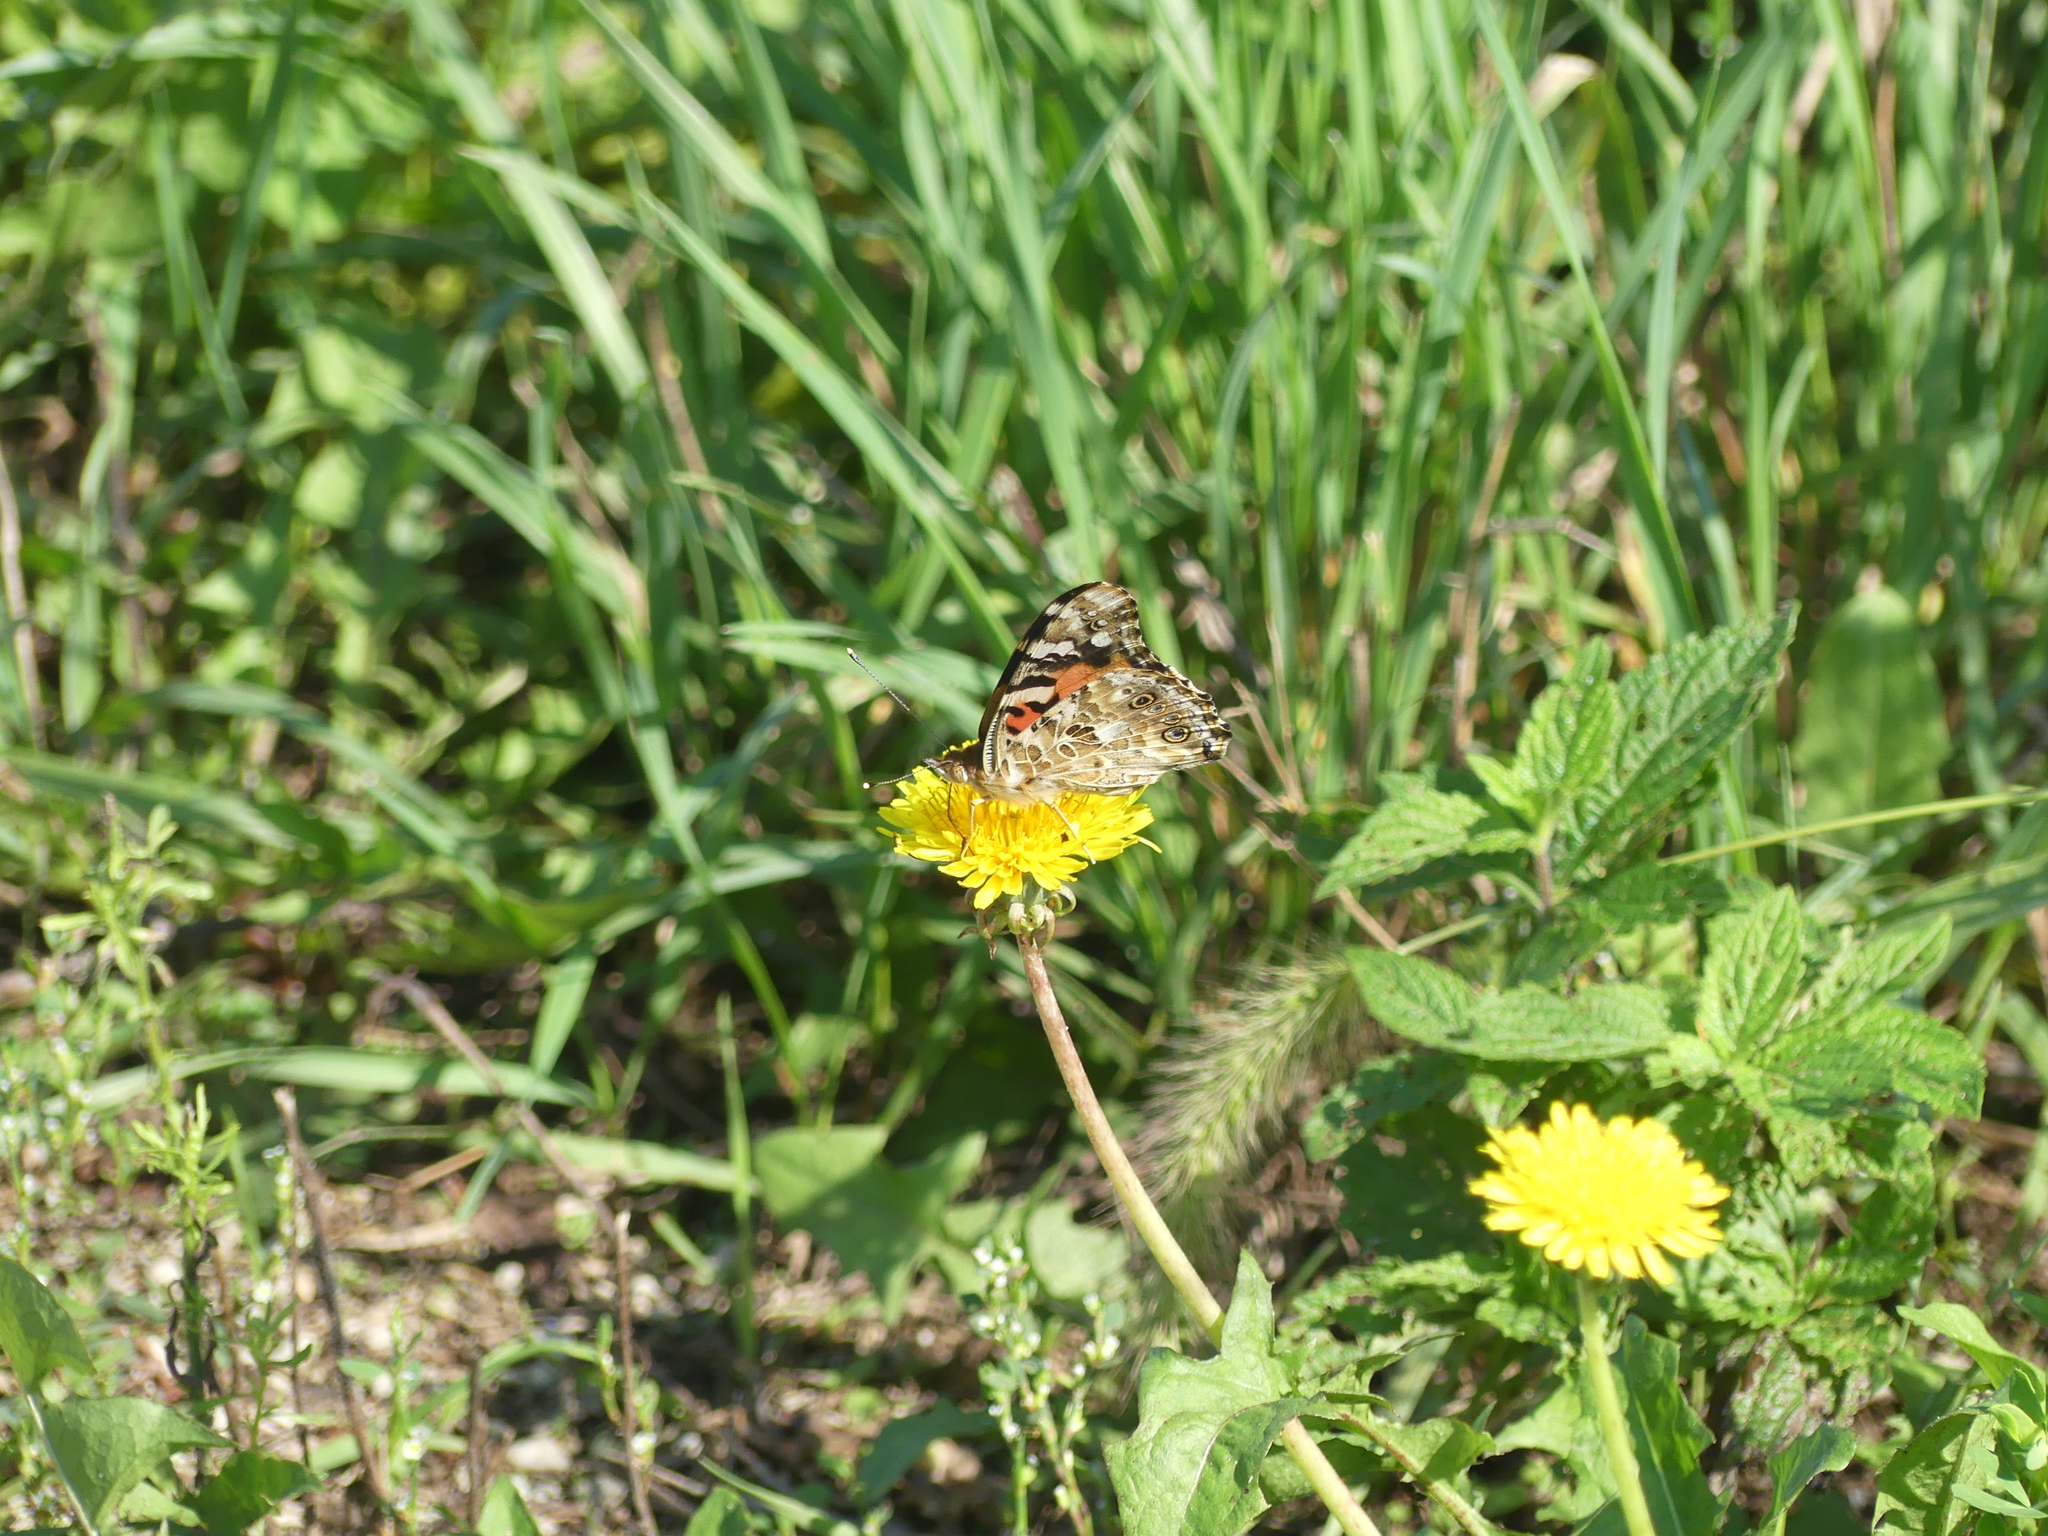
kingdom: Animalia
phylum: Arthropoda
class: Insecta
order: Lepidoptera
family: Nymphalidae
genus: Vanessa
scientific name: Vanessa cardui
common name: Painted lady
